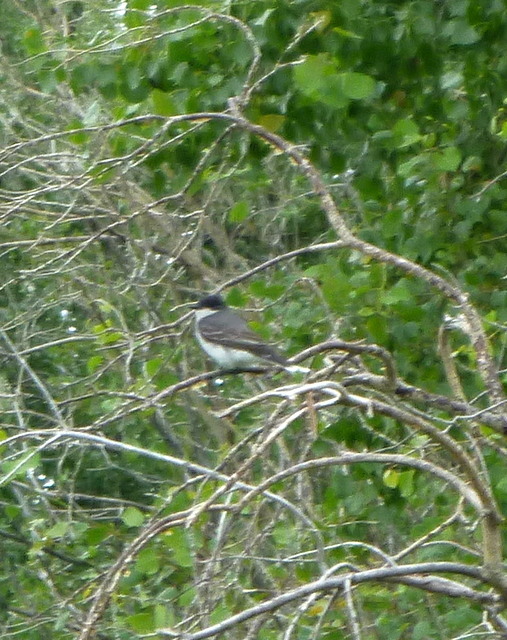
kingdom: Animalia
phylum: Chordata
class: Aves
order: Passeriformes
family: Tyrannidae
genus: Tyrannus
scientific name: Tyrannus tyrannus
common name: Eastern kingbird
